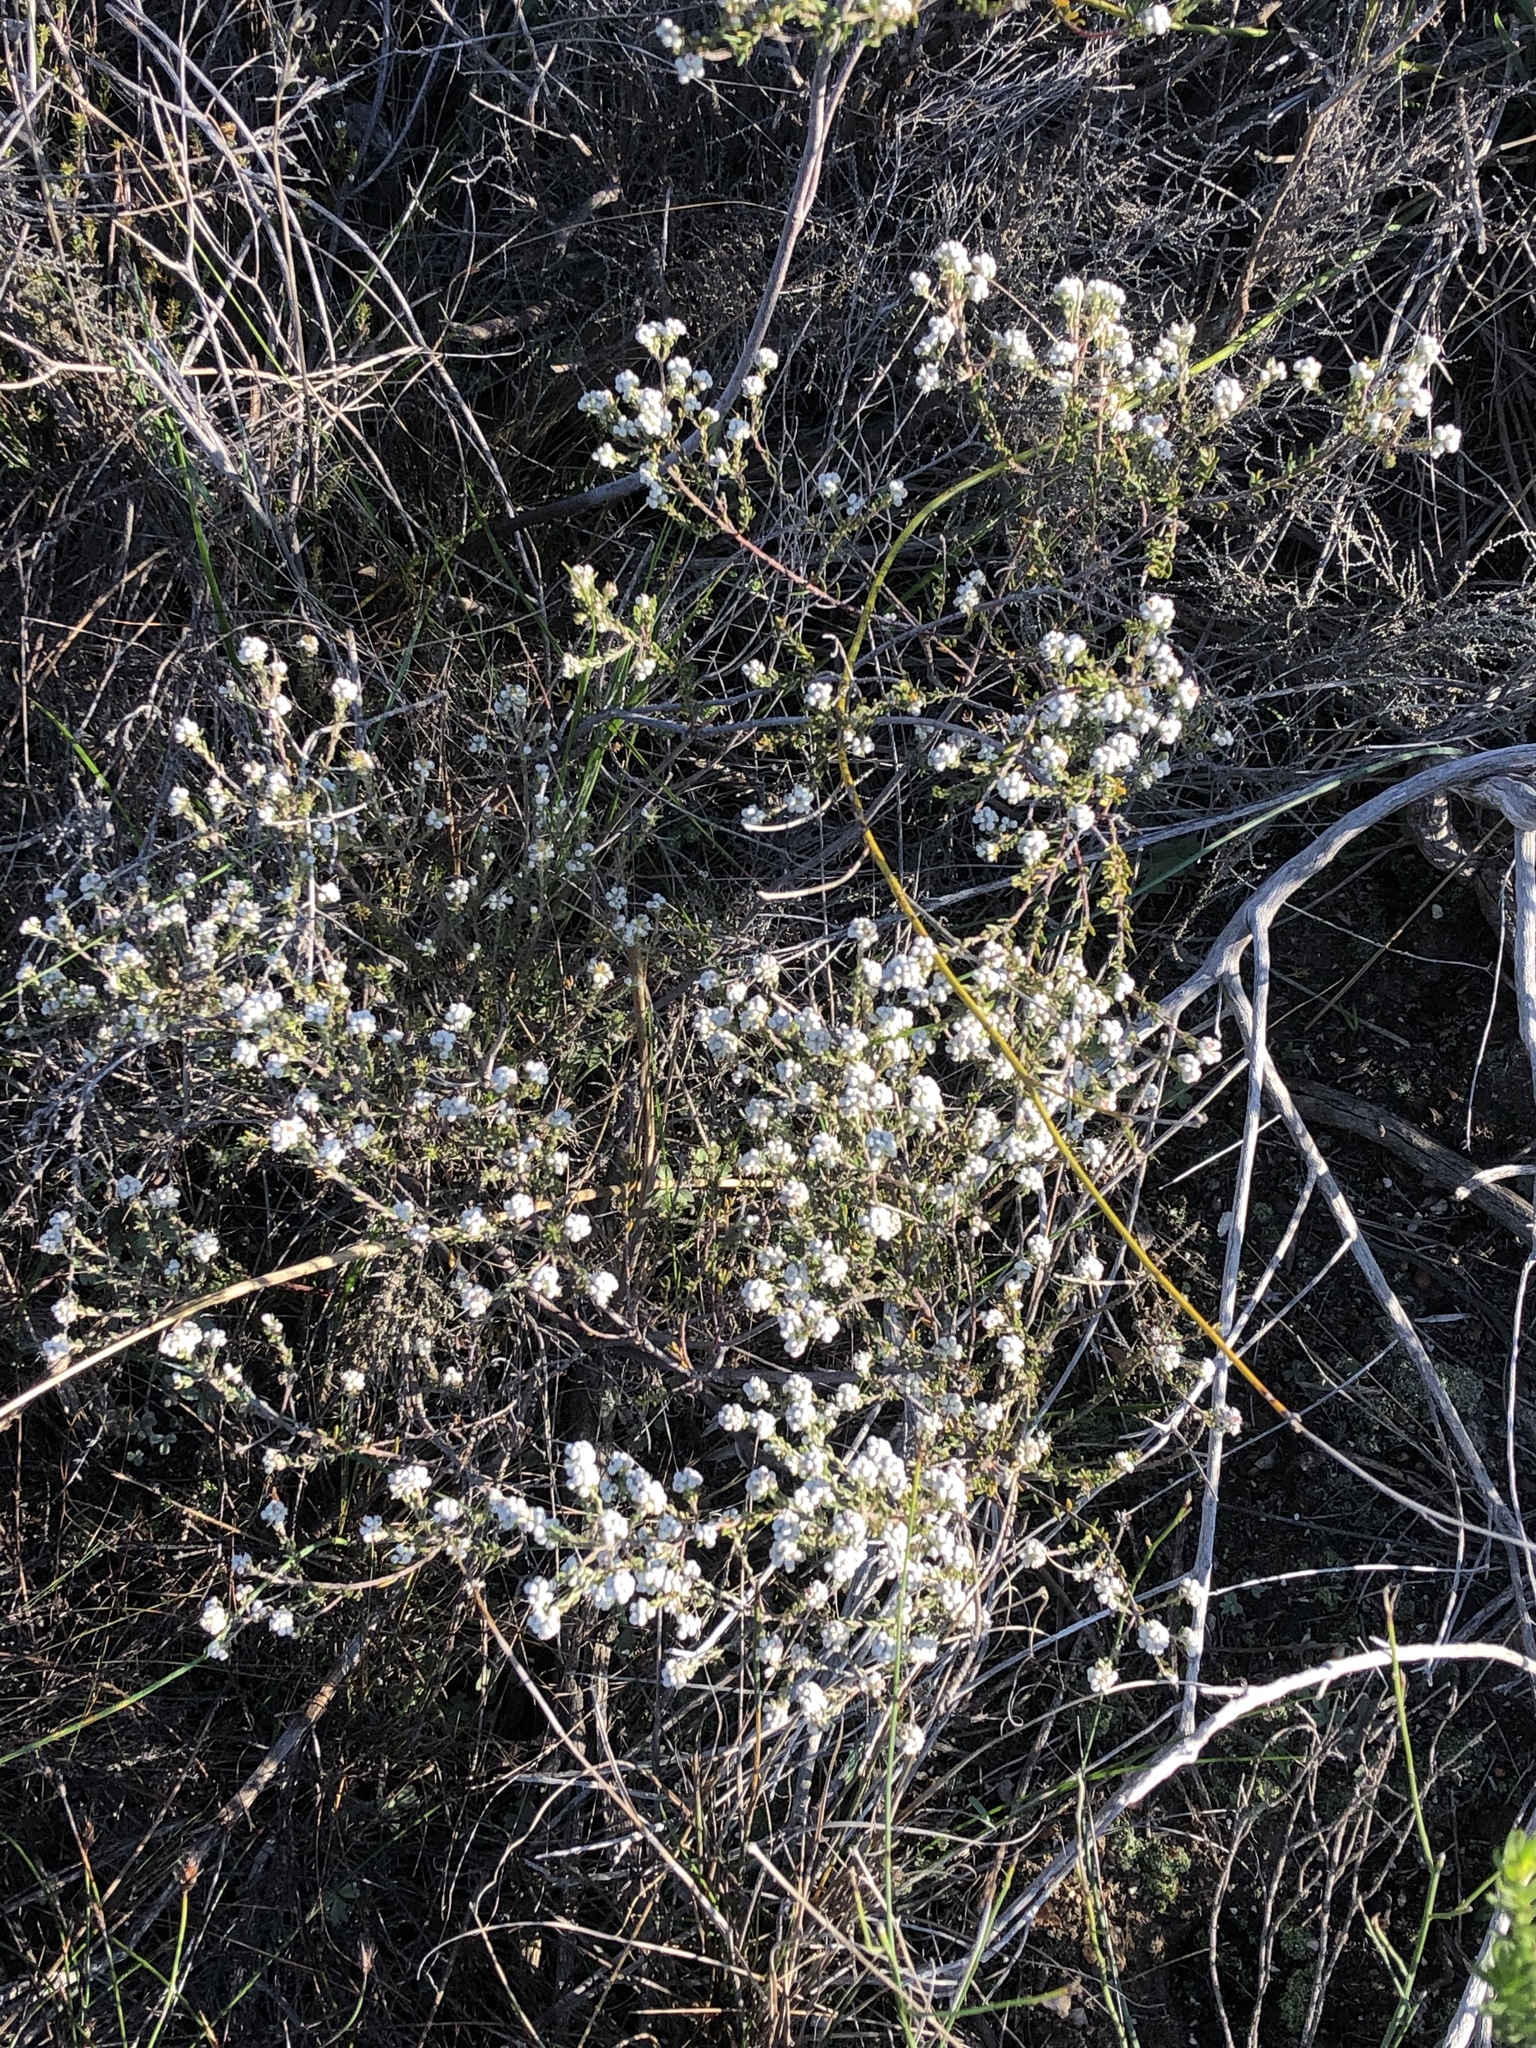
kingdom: Plantae
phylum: Tracheophyta
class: Magnoliopsida
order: Rosales
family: Rhamnaceae
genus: Phylica
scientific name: Phylica purpurea
